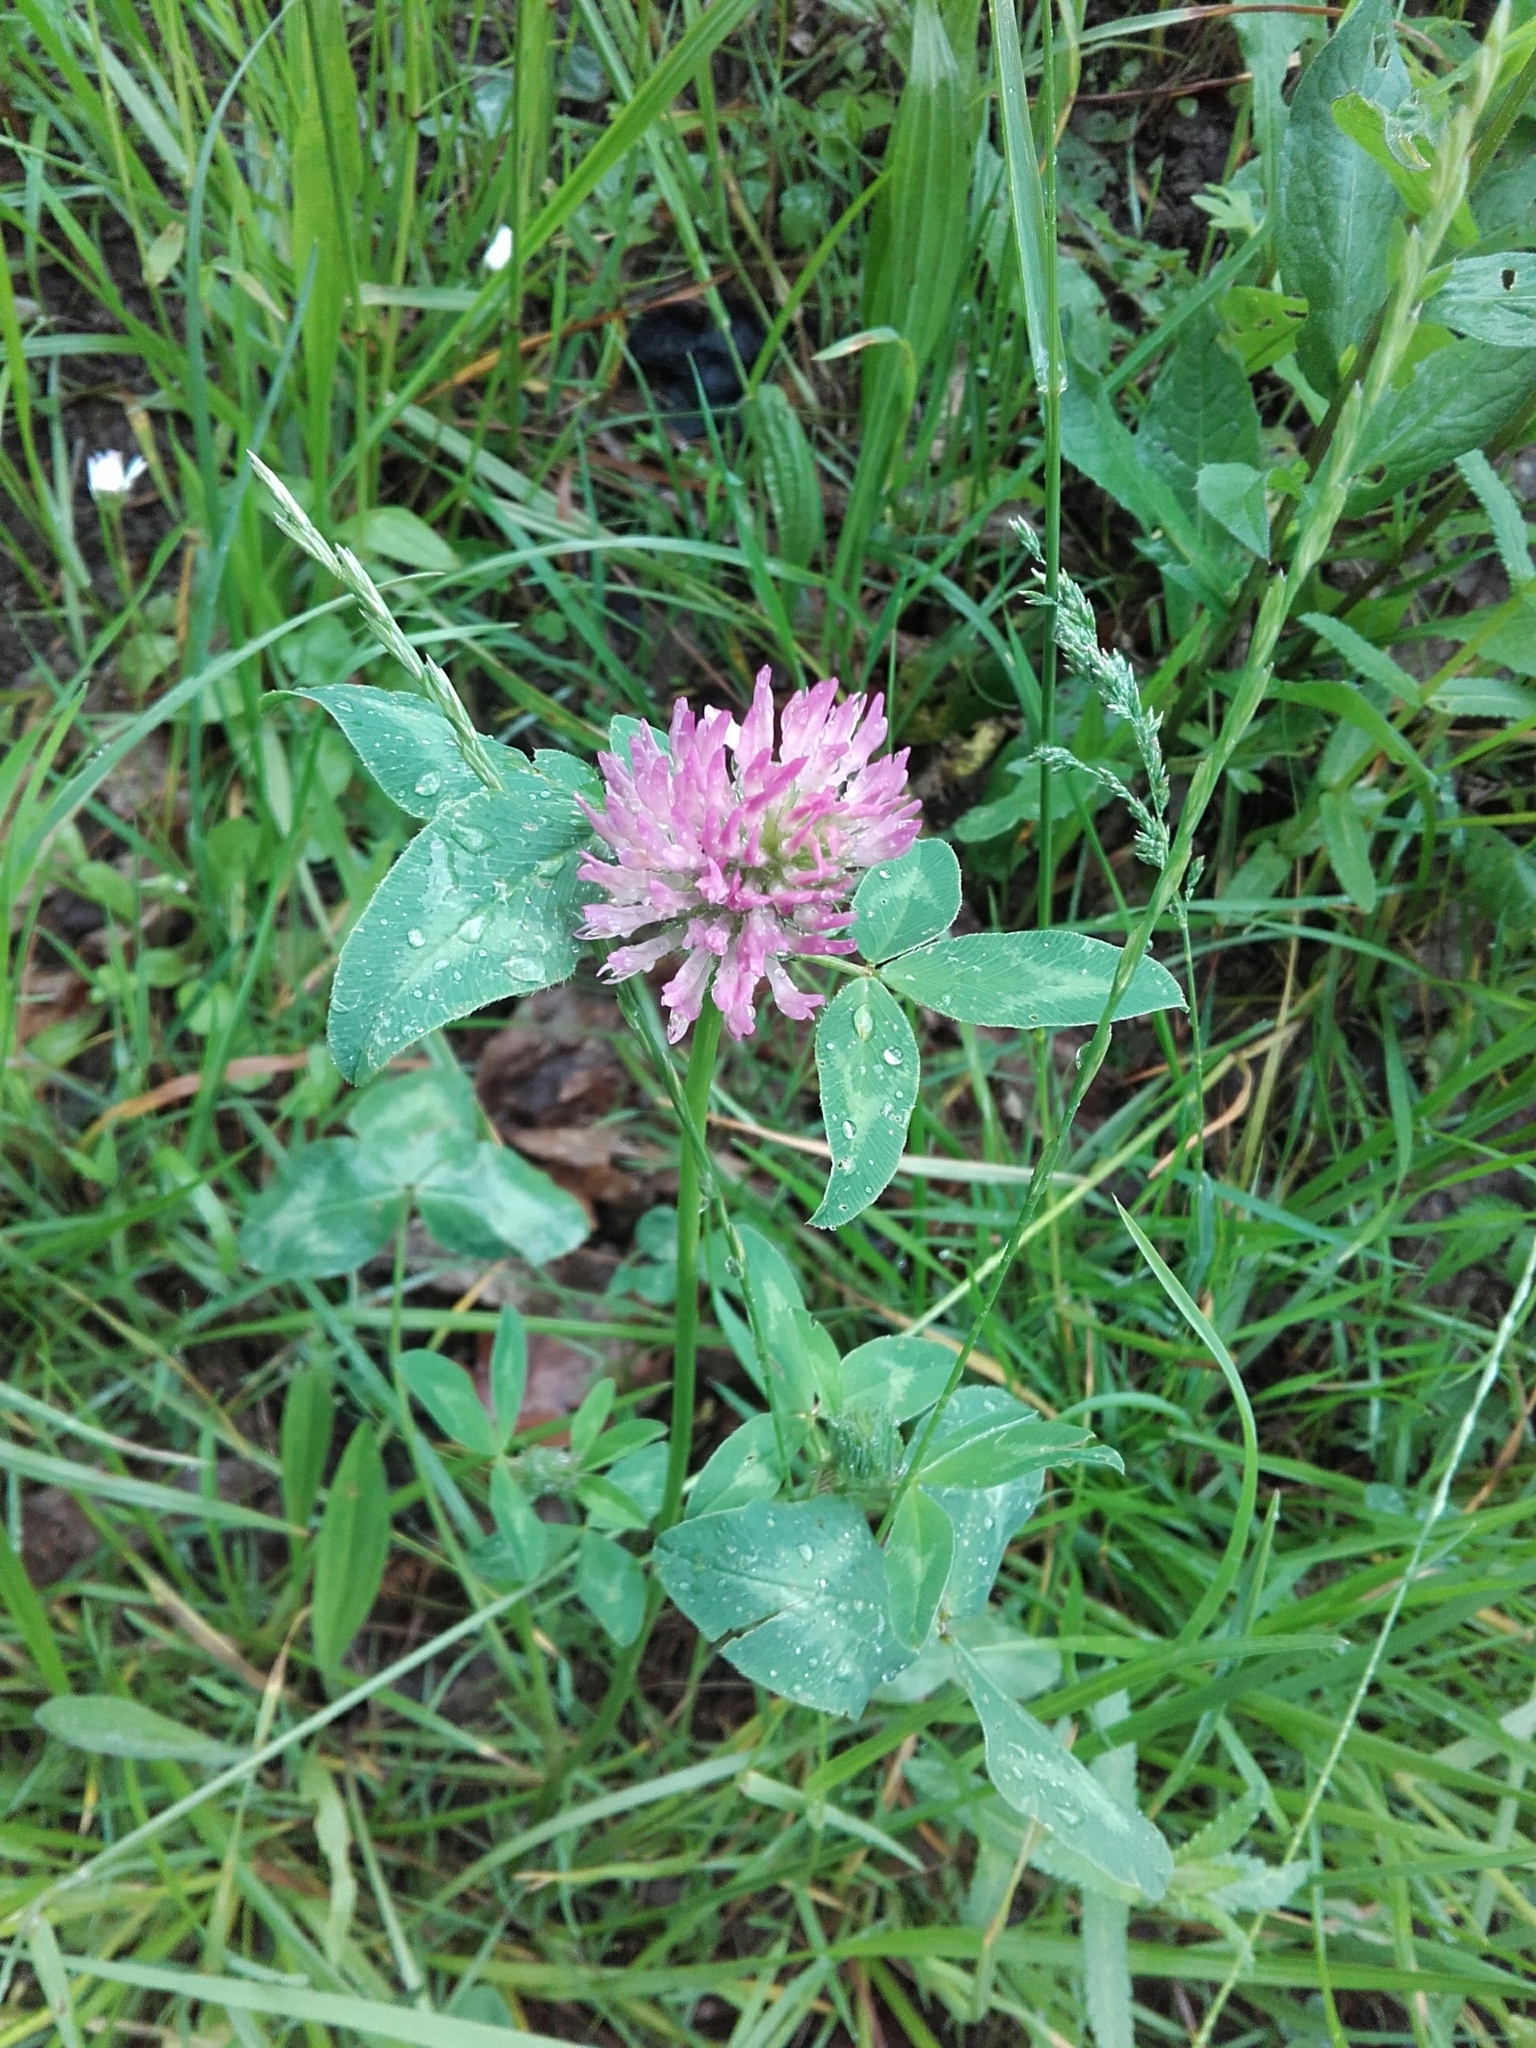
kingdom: Plantae
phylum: Tracheophyta
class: Magnoliopsida
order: Fabales
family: Fabaceae
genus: Trifolium
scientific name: Trifolium pratense
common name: Red clover
